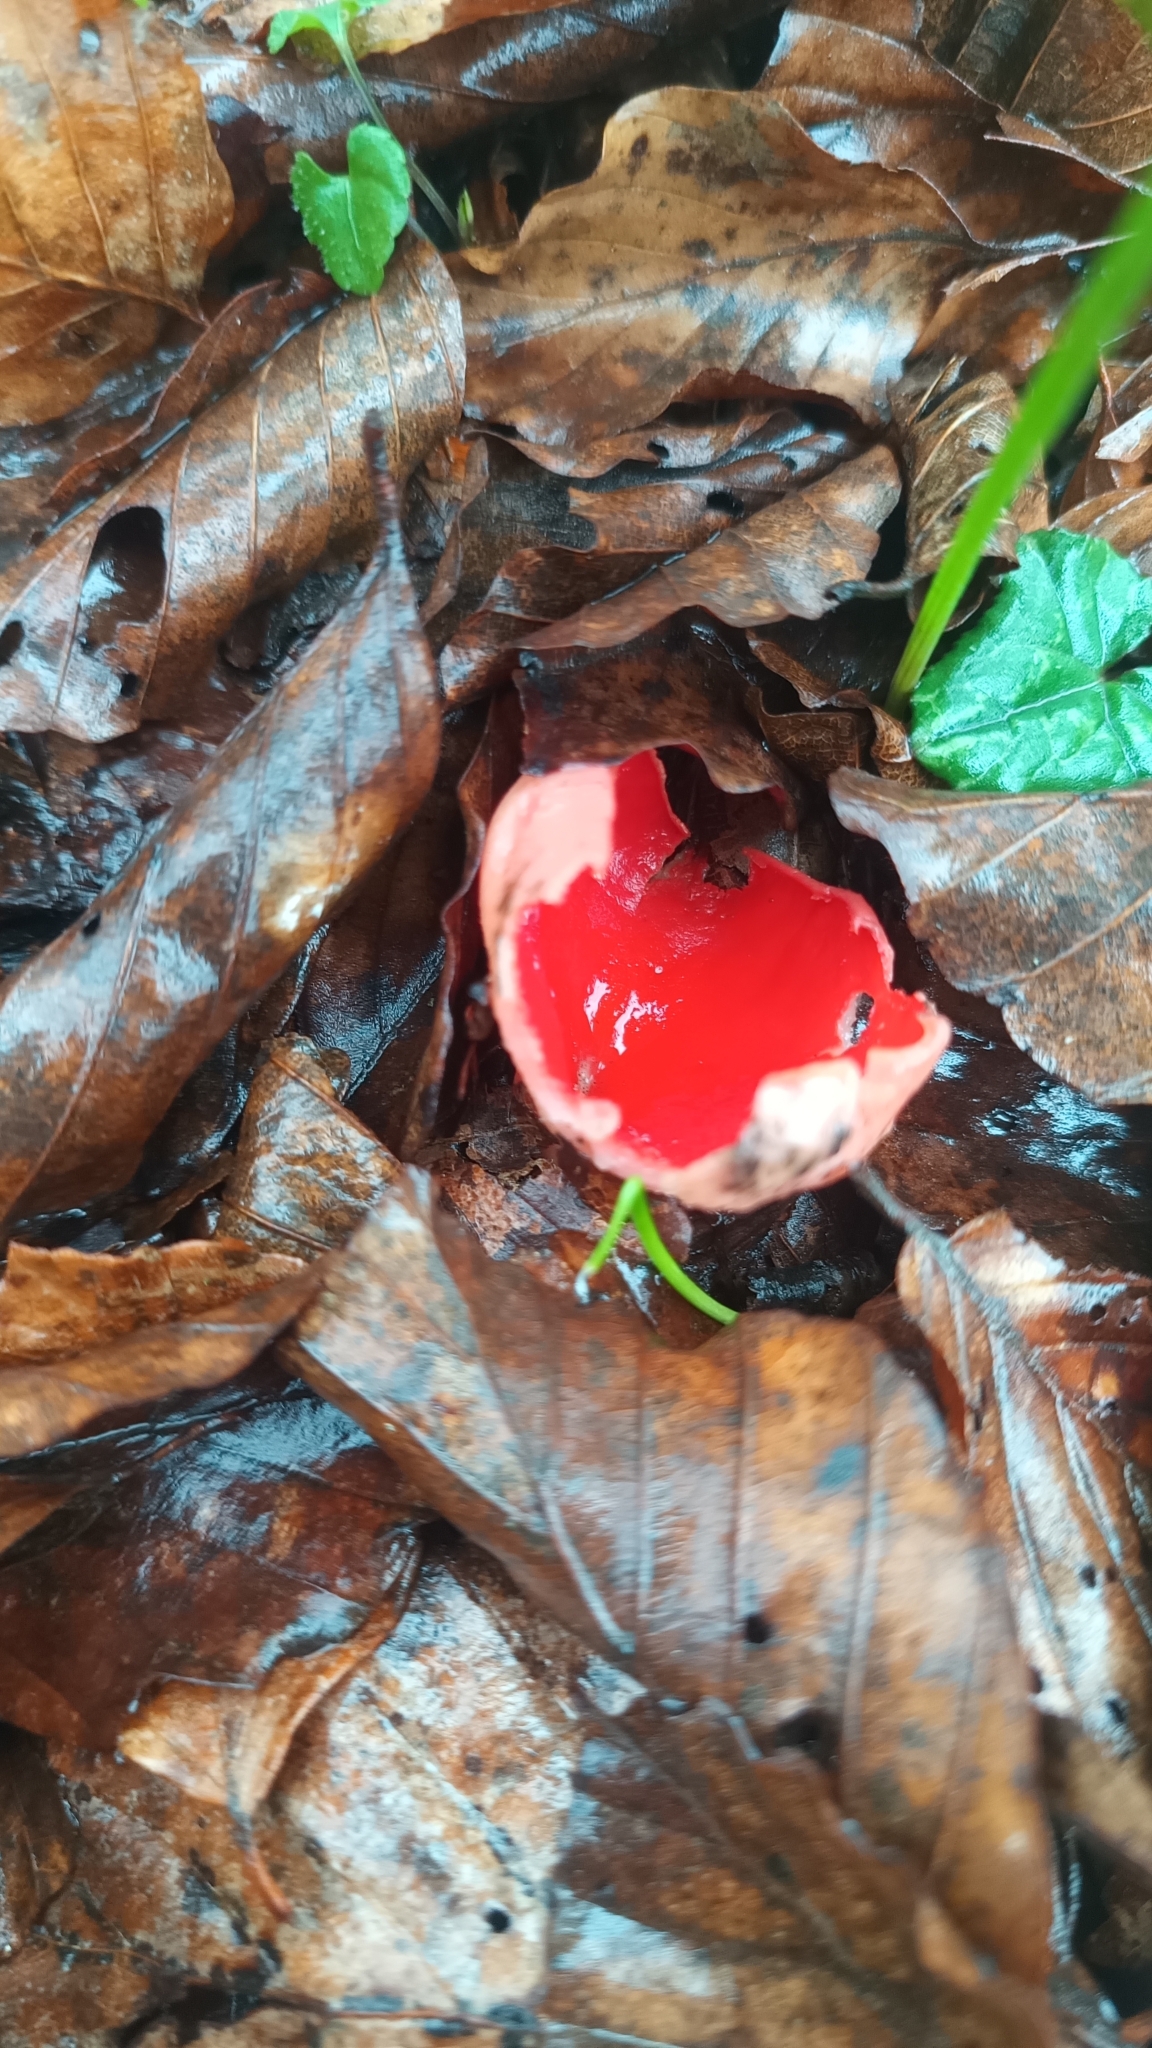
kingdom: Fungi
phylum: Ascomycota
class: Pezizomycetes
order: Pezizales
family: Sarcoscyphaceae
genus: Sarcoscypha
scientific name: Sarcoscypha
